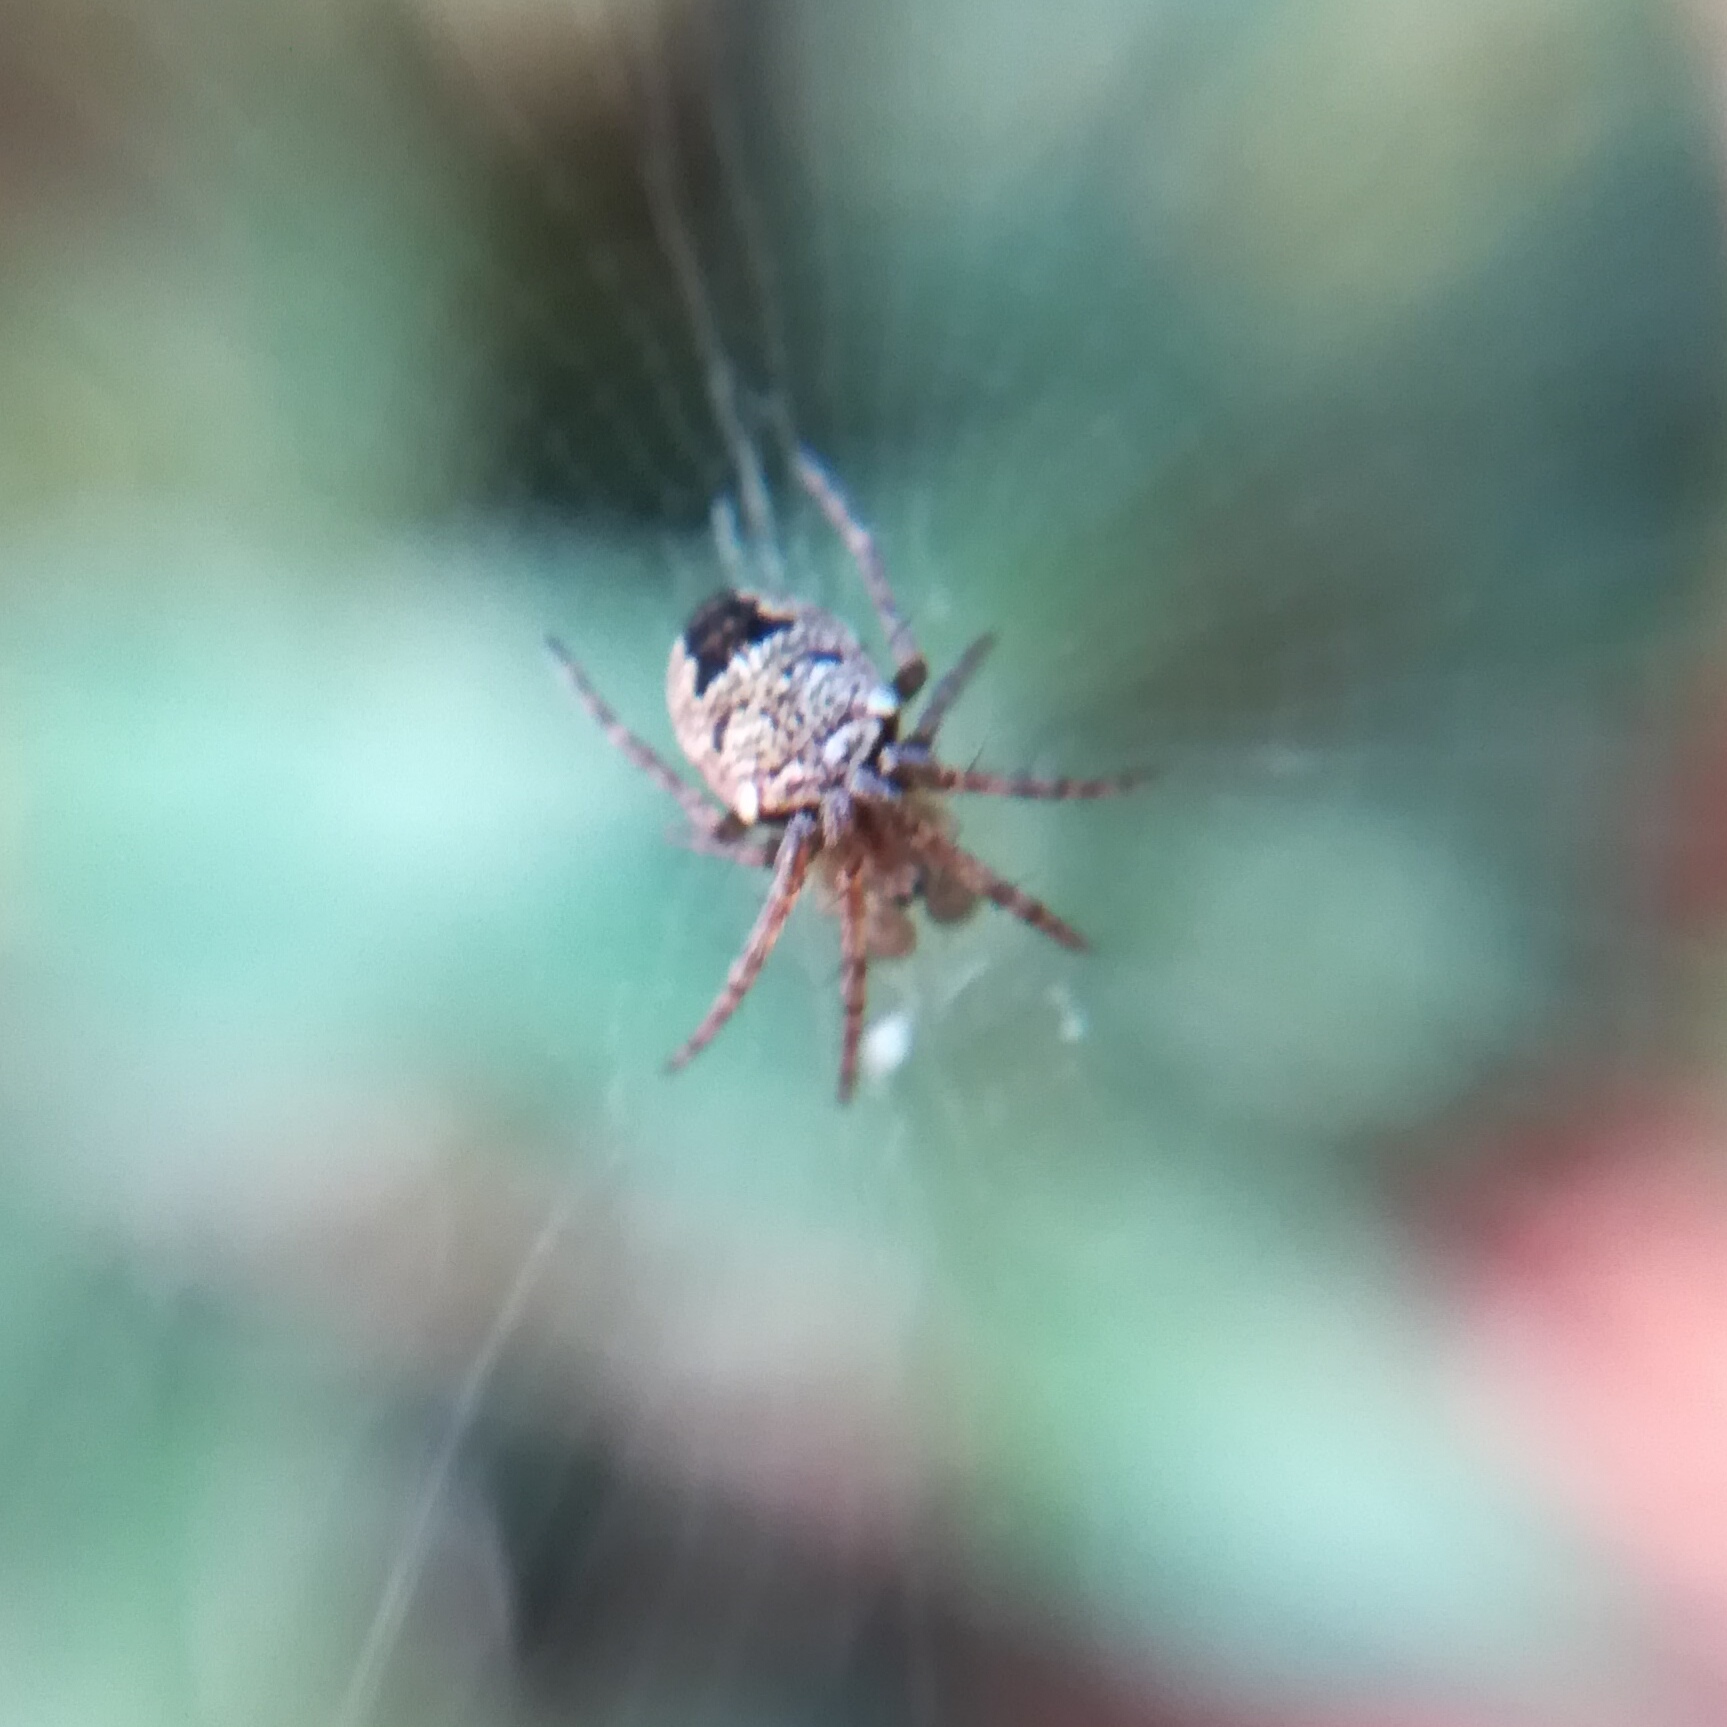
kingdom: Animalia
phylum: Arthropoda
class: Arachnida
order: Araneae
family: Araneidae
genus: Zilla
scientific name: Zilla diodia
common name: Zilla diodia
